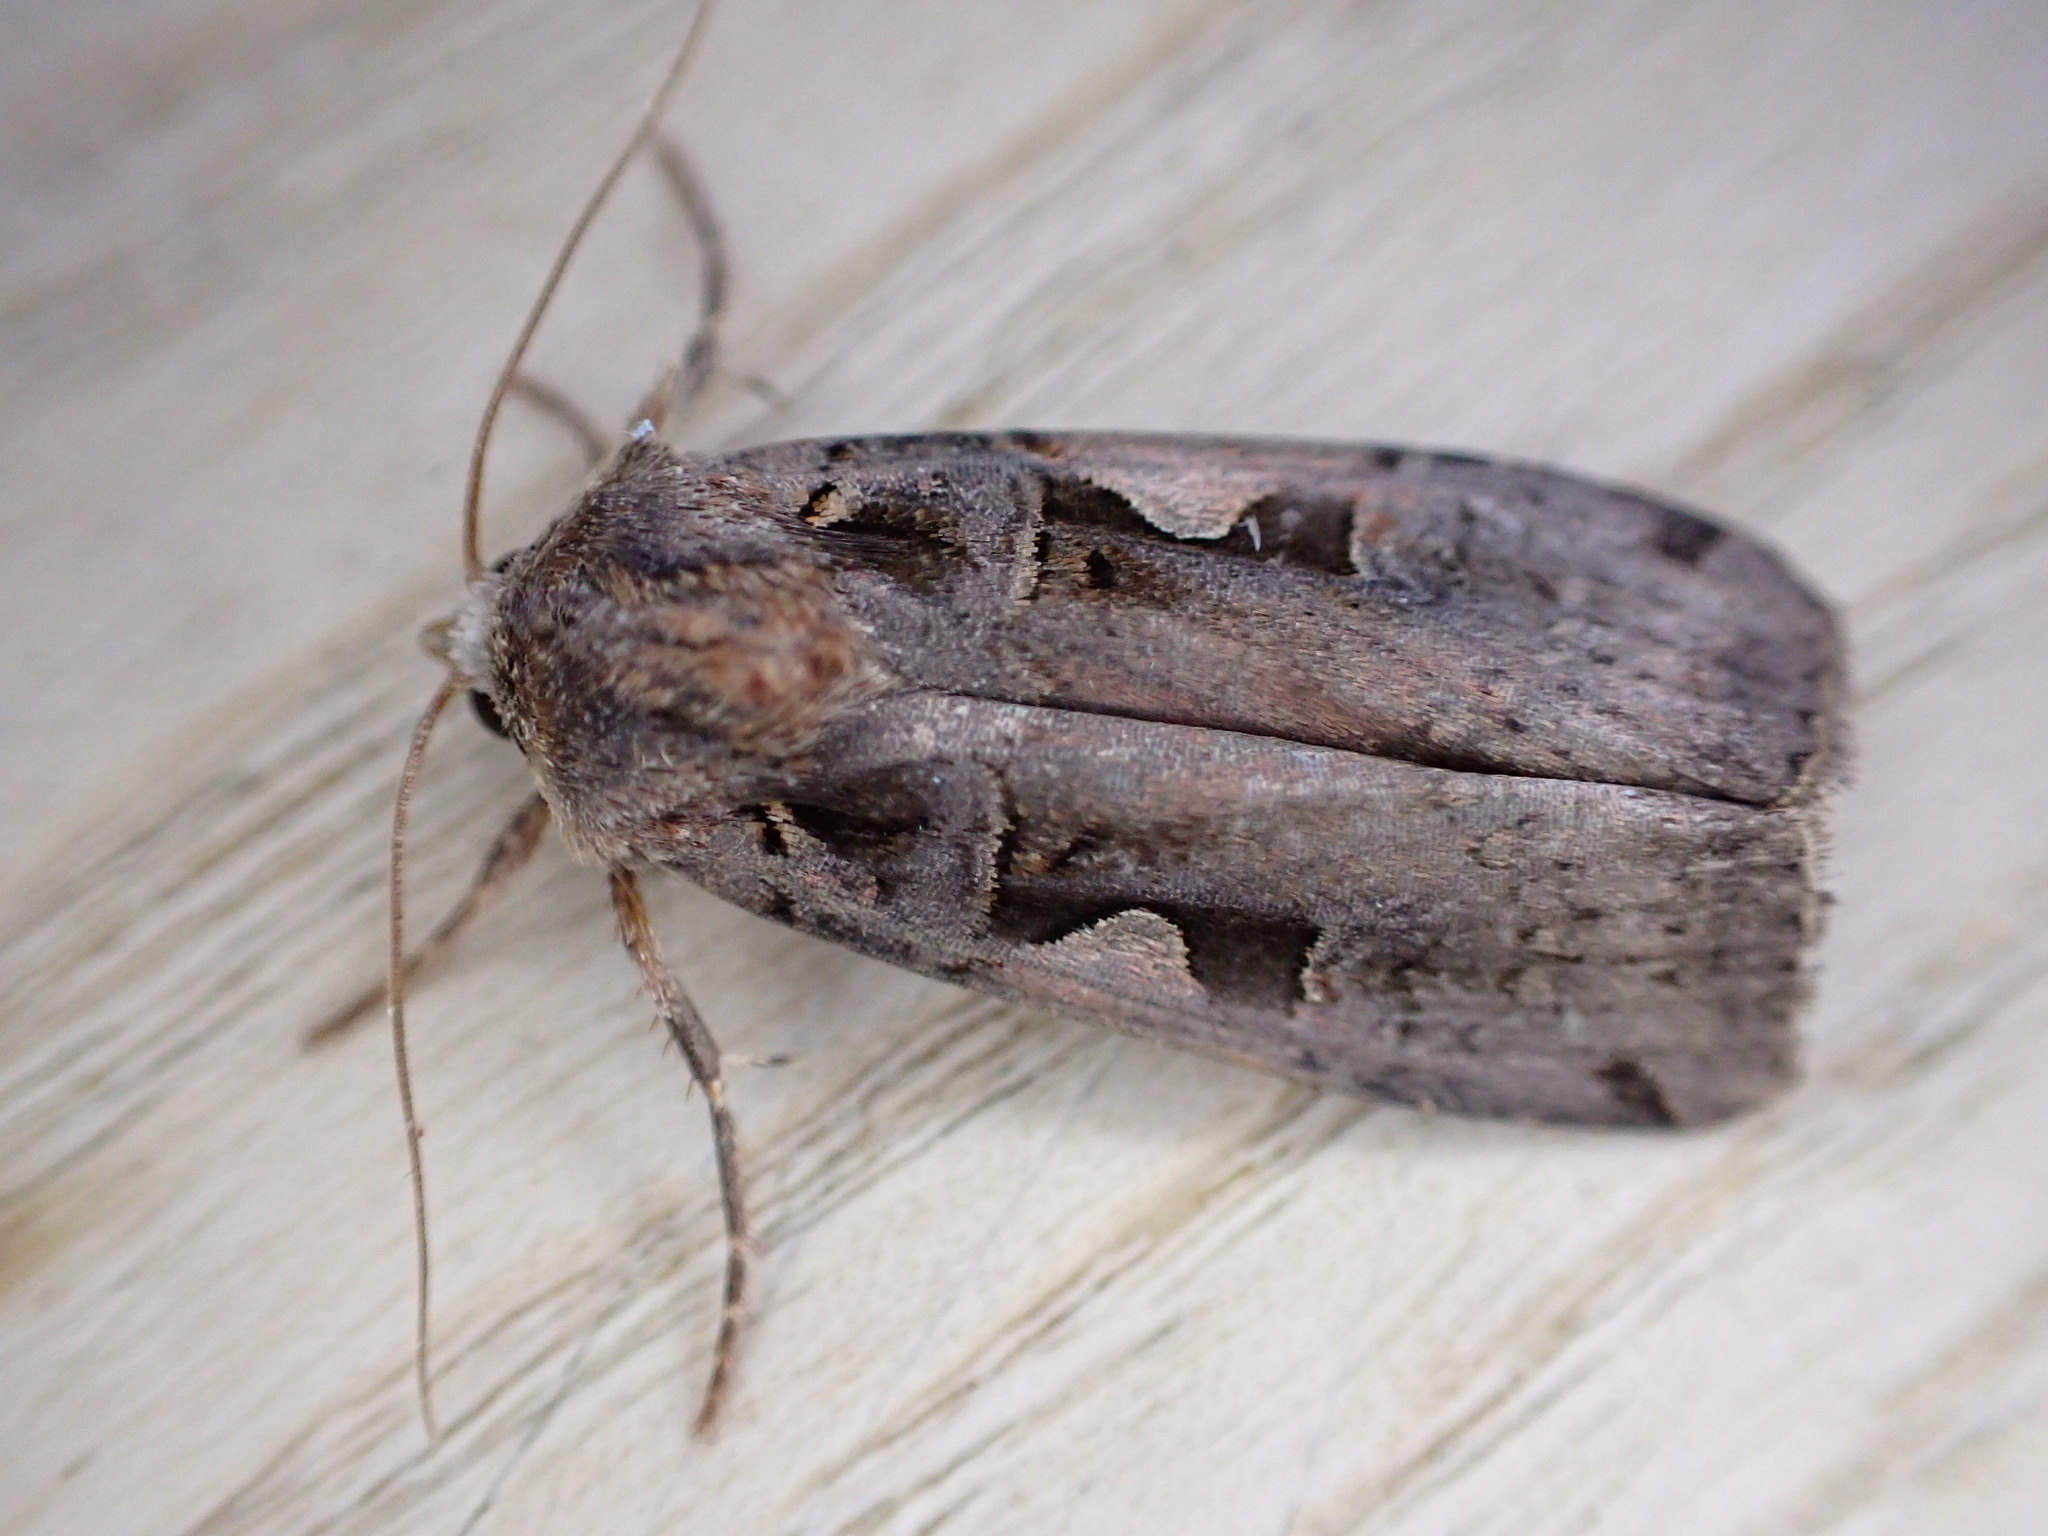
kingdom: Animalia
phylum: Arthropoda
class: Insecta
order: Lepidoptera
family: Noctuidae
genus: Xestia
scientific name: Xestia c-nigrum
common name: Setaceous hebrew character
